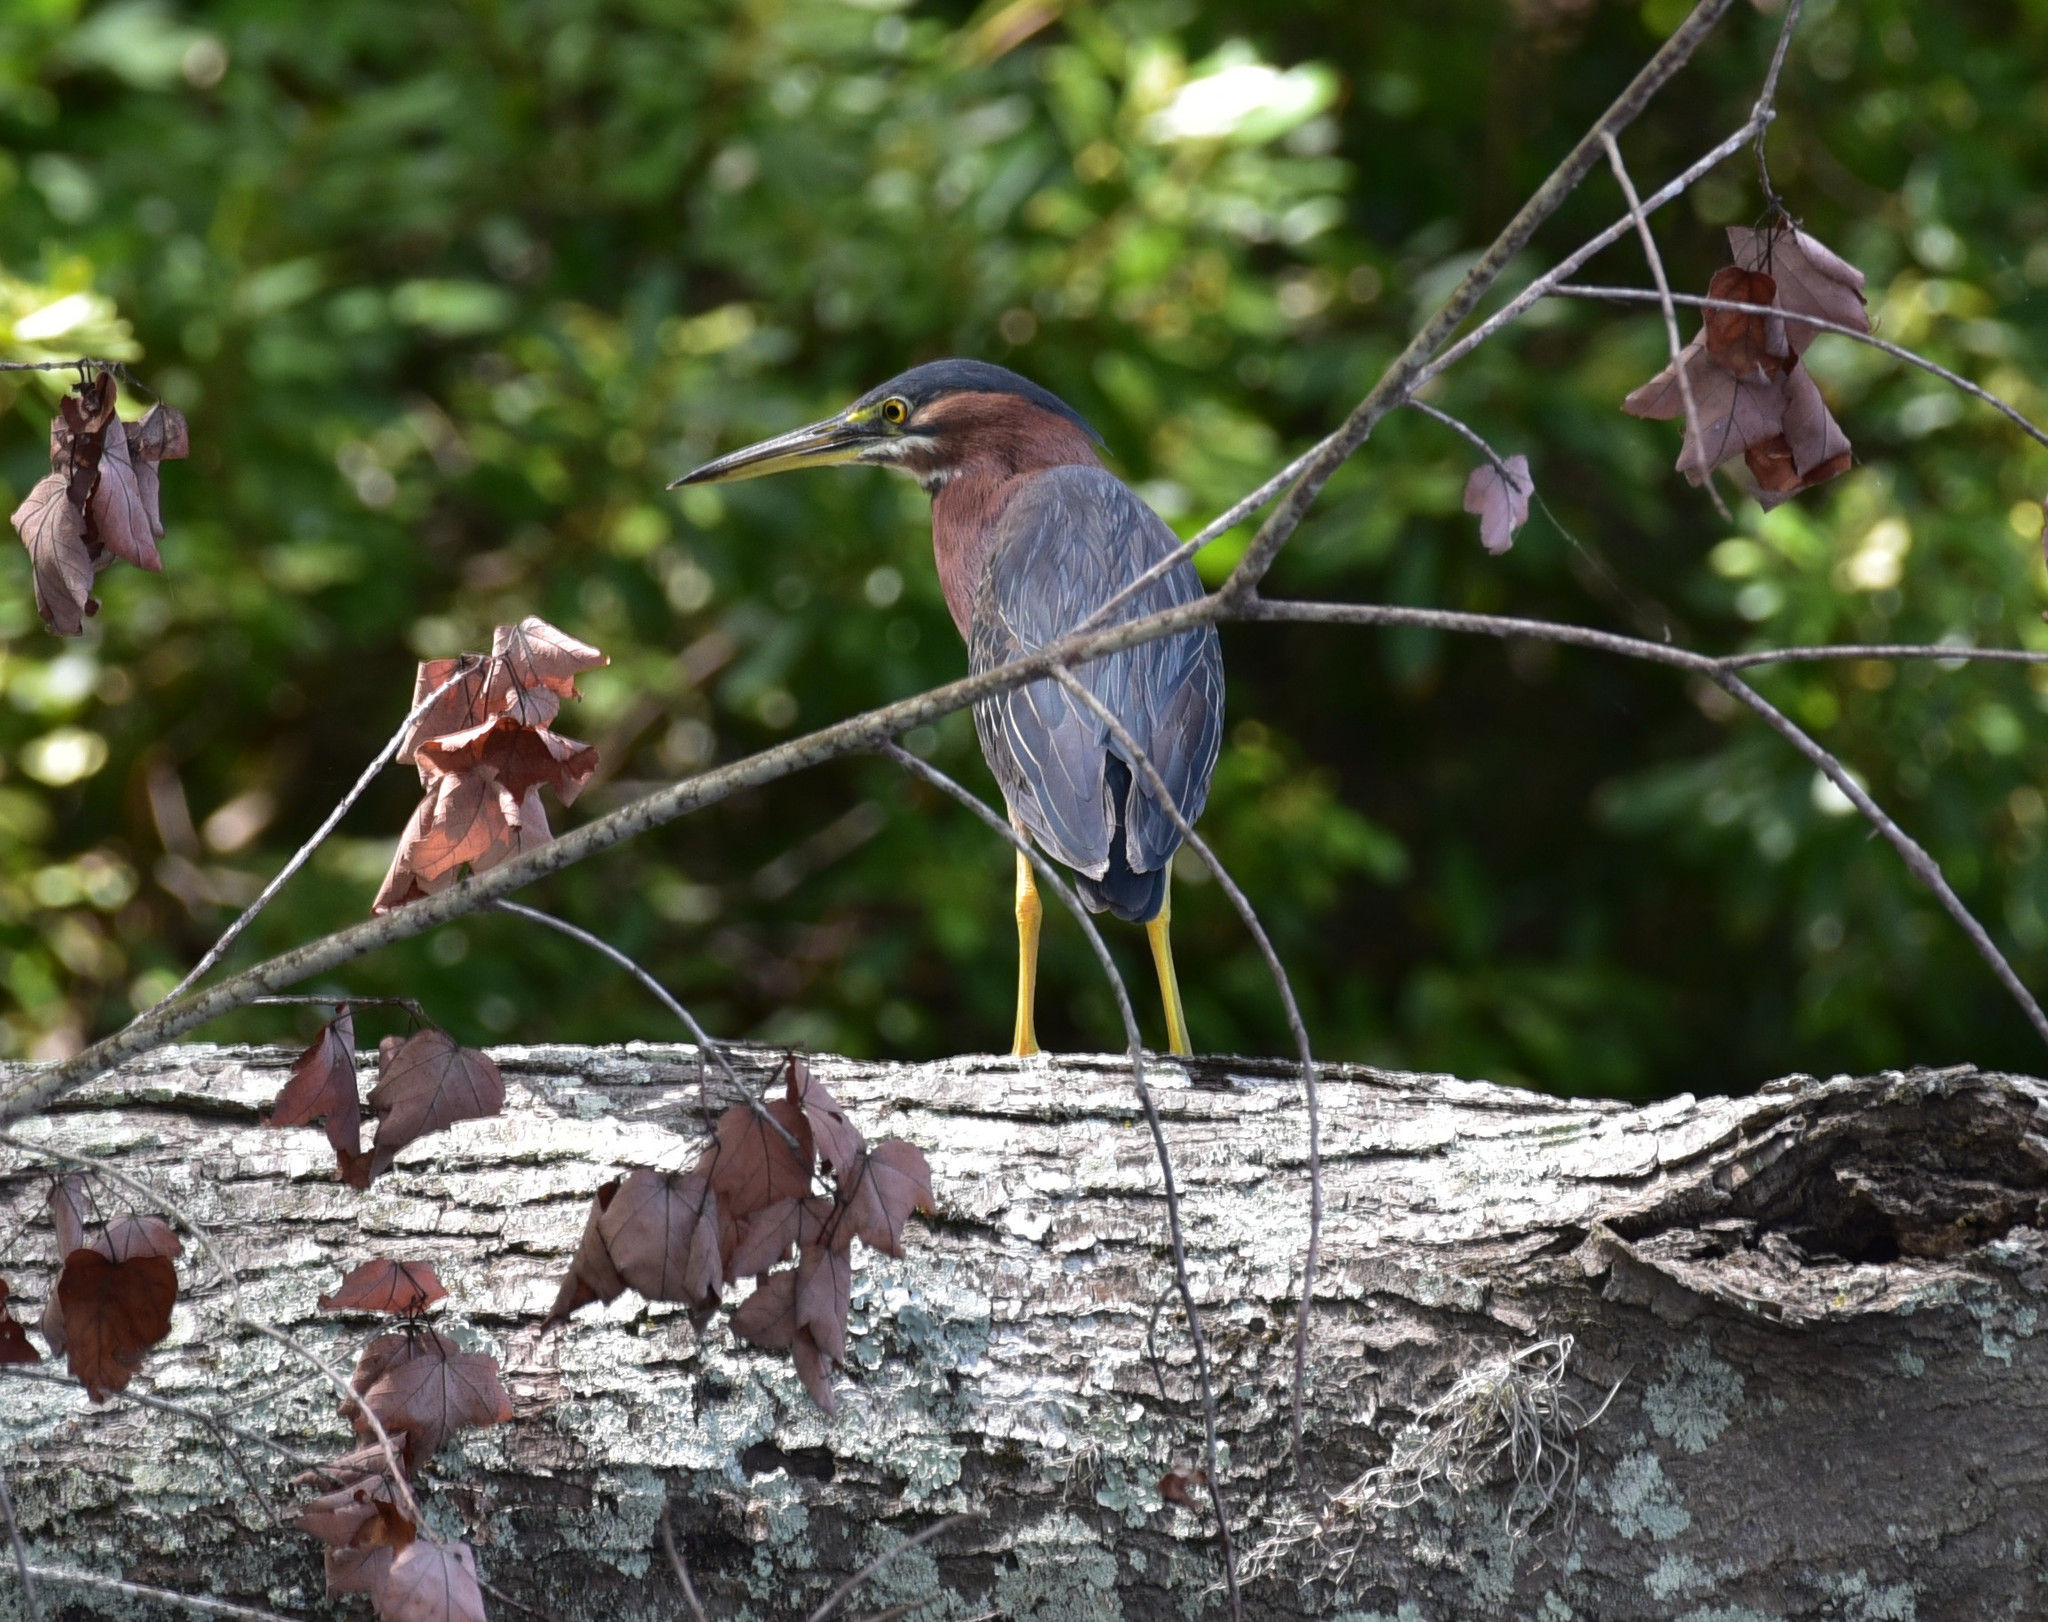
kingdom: Animalia
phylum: Chordata
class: Aves
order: Pelecaniformes
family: Ardeidae
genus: Butorides
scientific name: Butorides virescens
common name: Green heron
